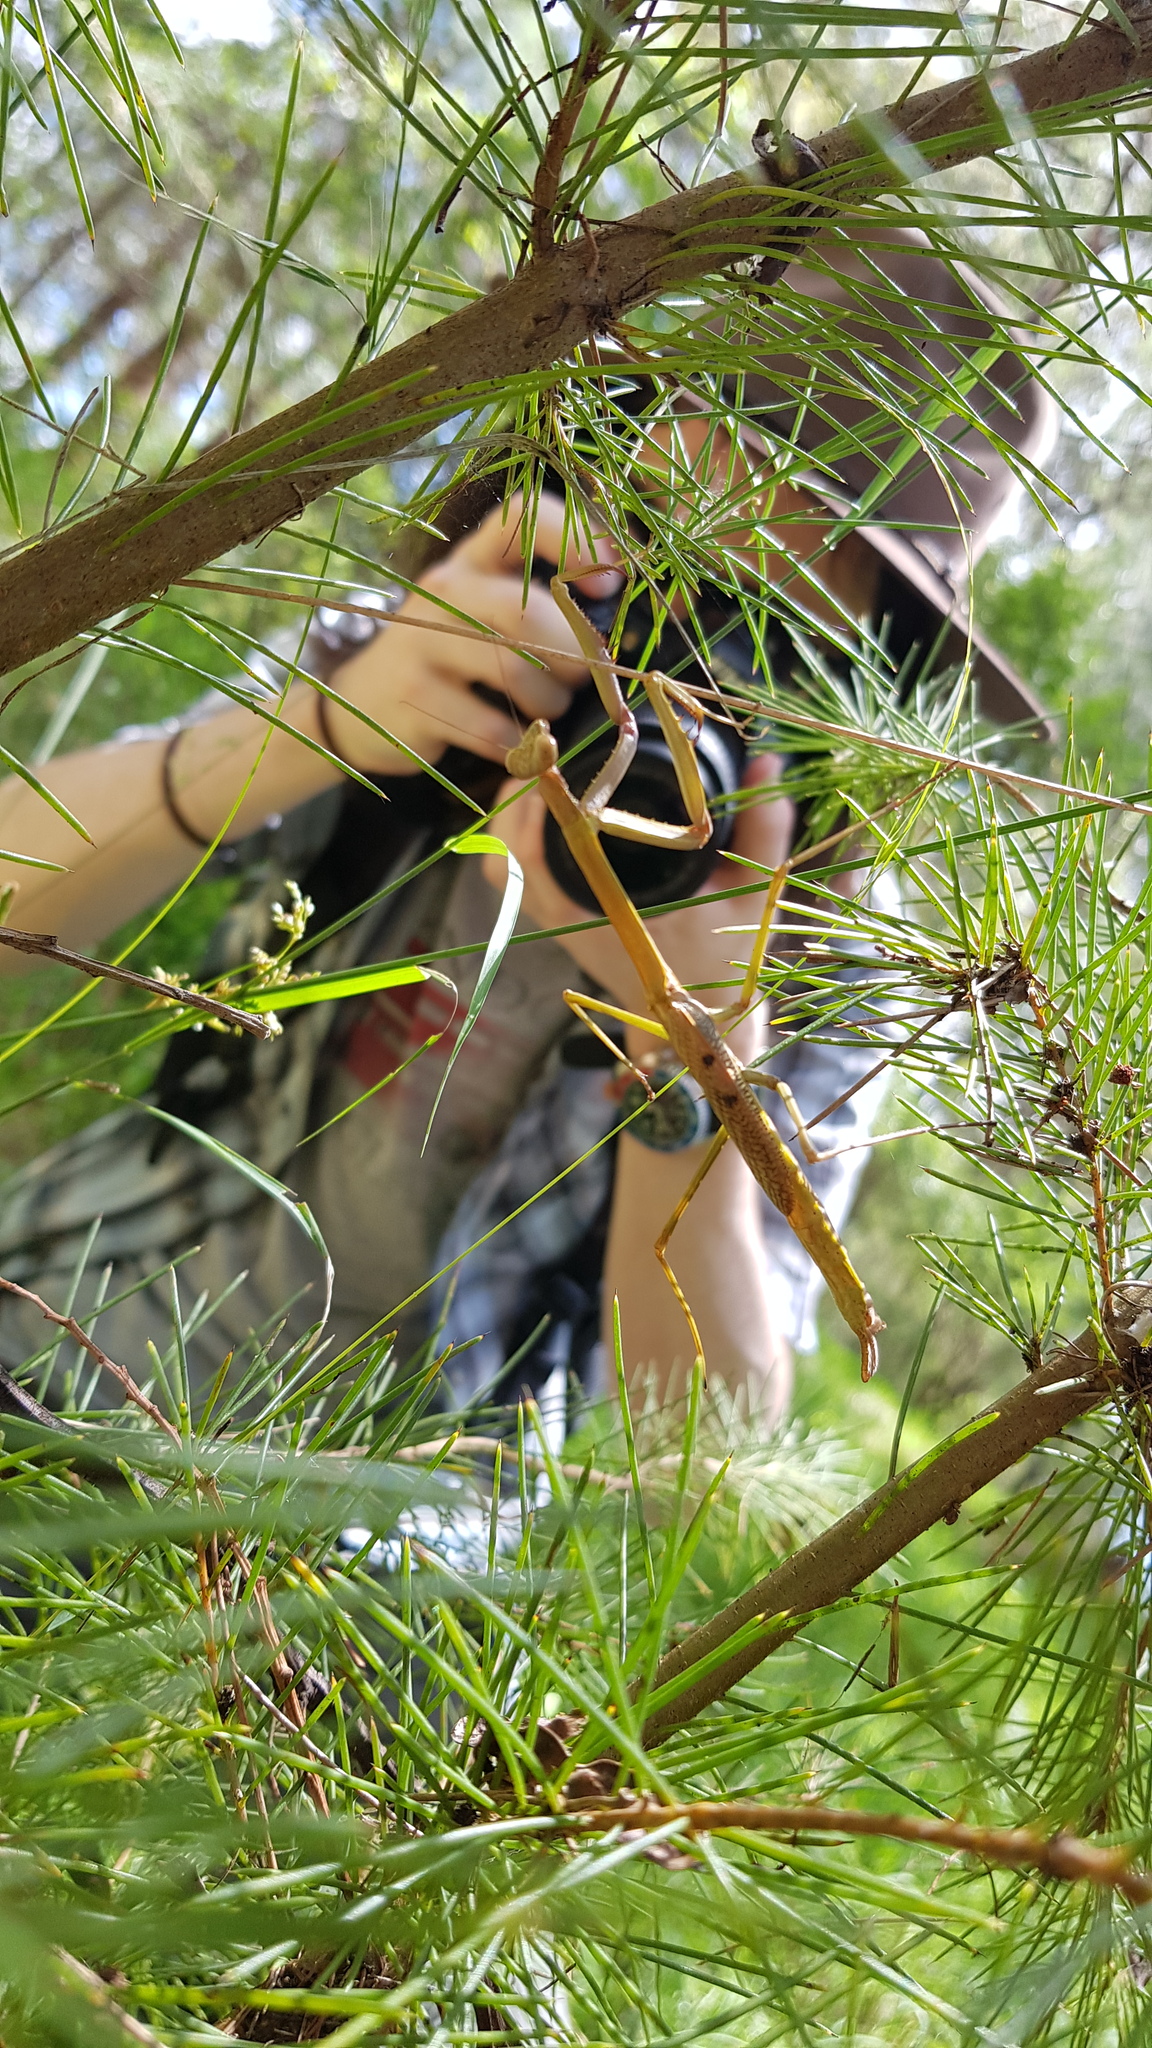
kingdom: Animalia
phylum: Arthropoda
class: Insecta
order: Mantodea
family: Mantidae
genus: Archimantis
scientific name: Archimantis latistyla
